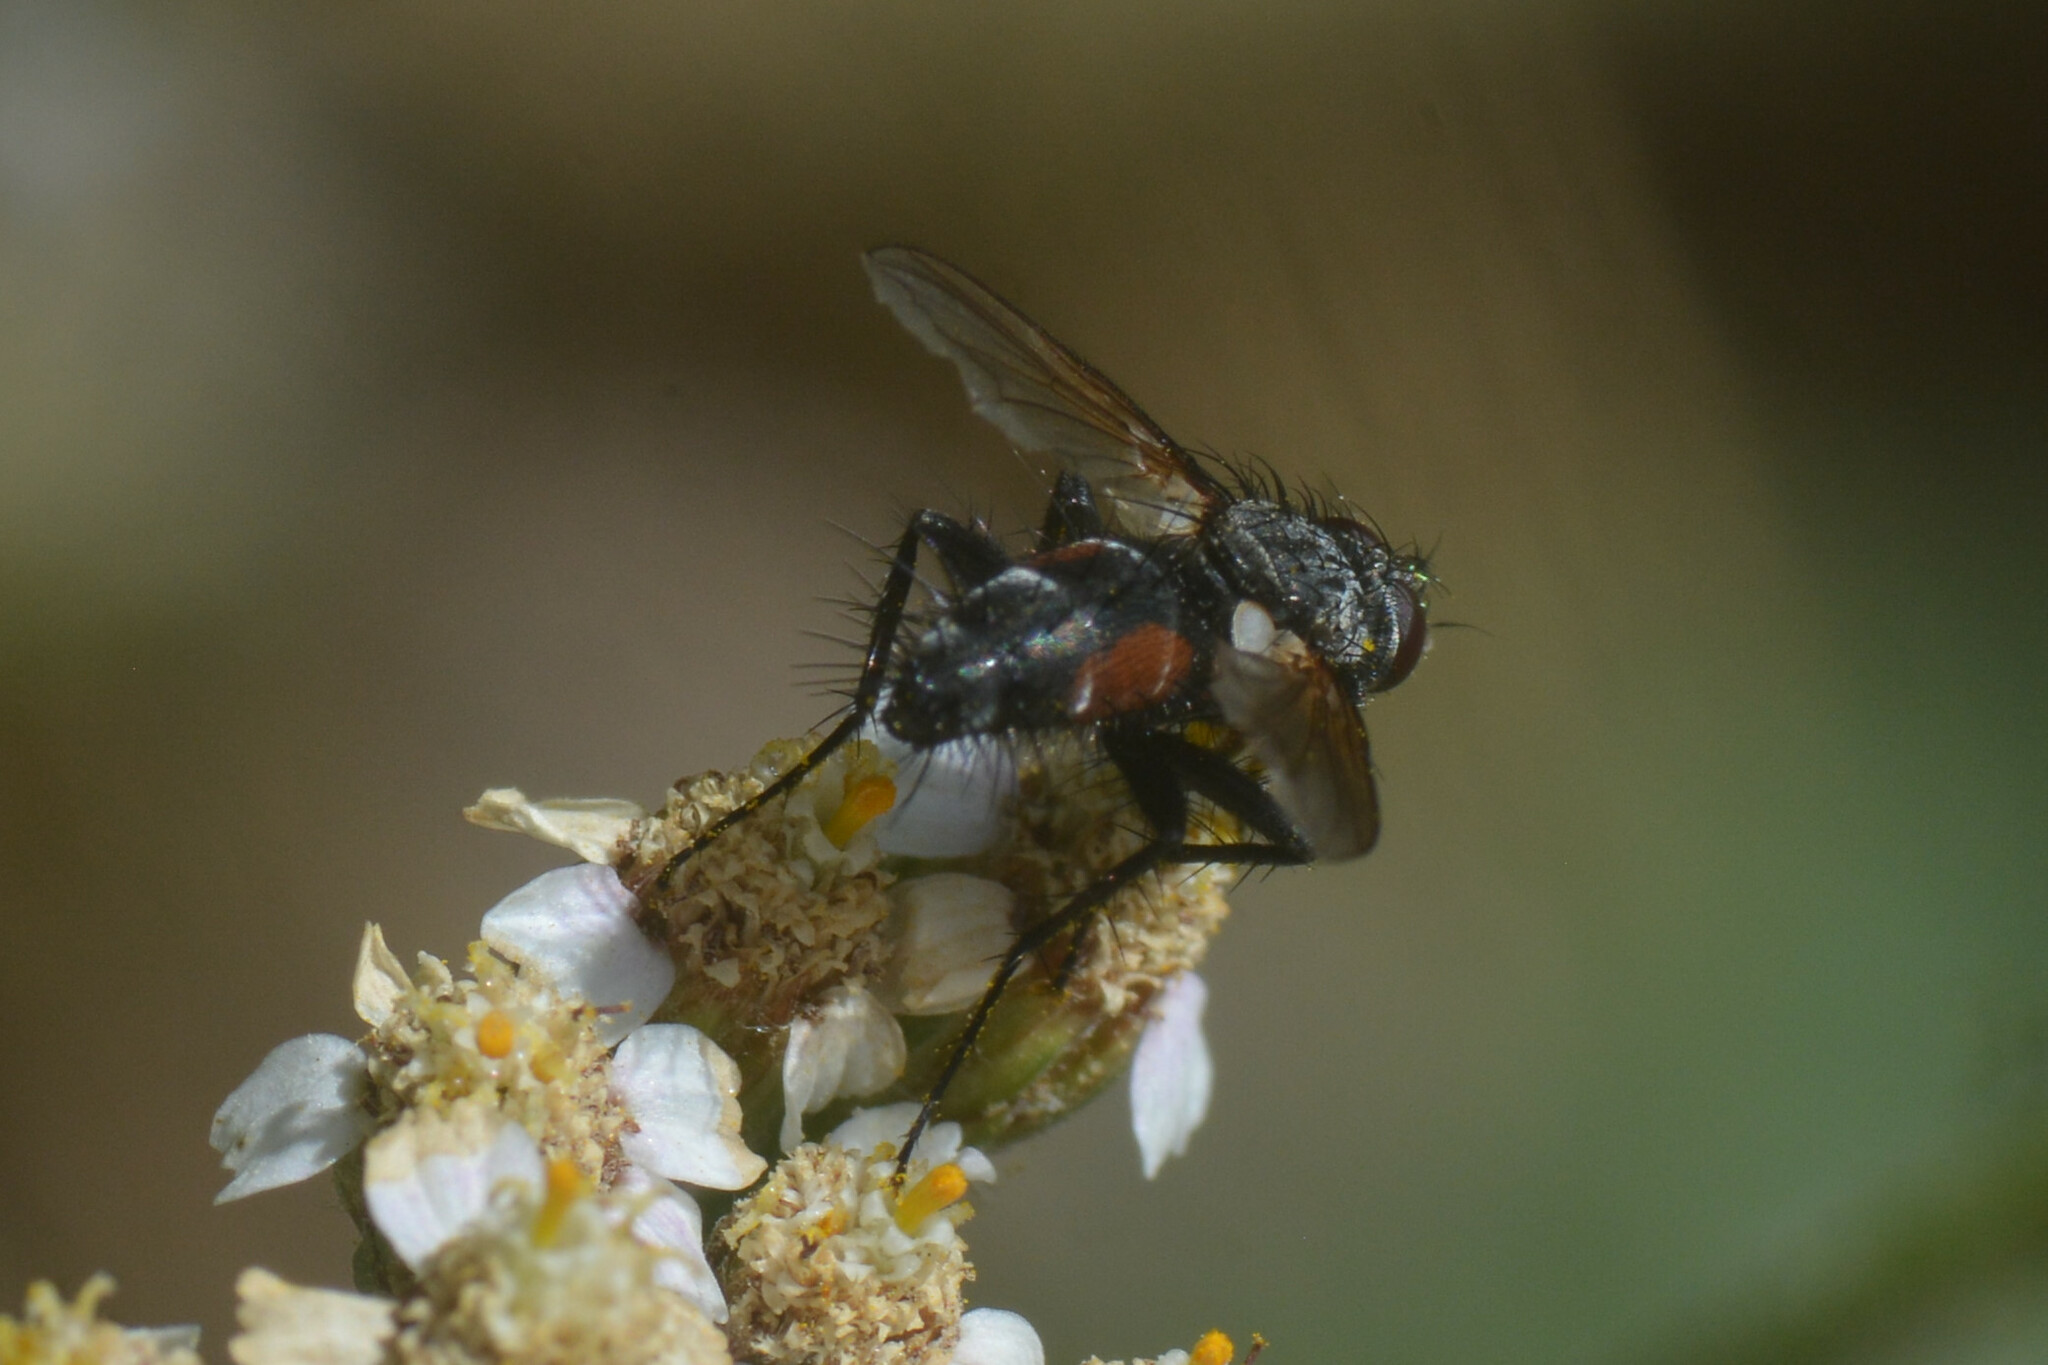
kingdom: Animalia
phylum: Arthropoda
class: Insecta
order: Diptera
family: Tachinidae
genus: Eriothrix
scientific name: Eriothrix rufomaculatus
